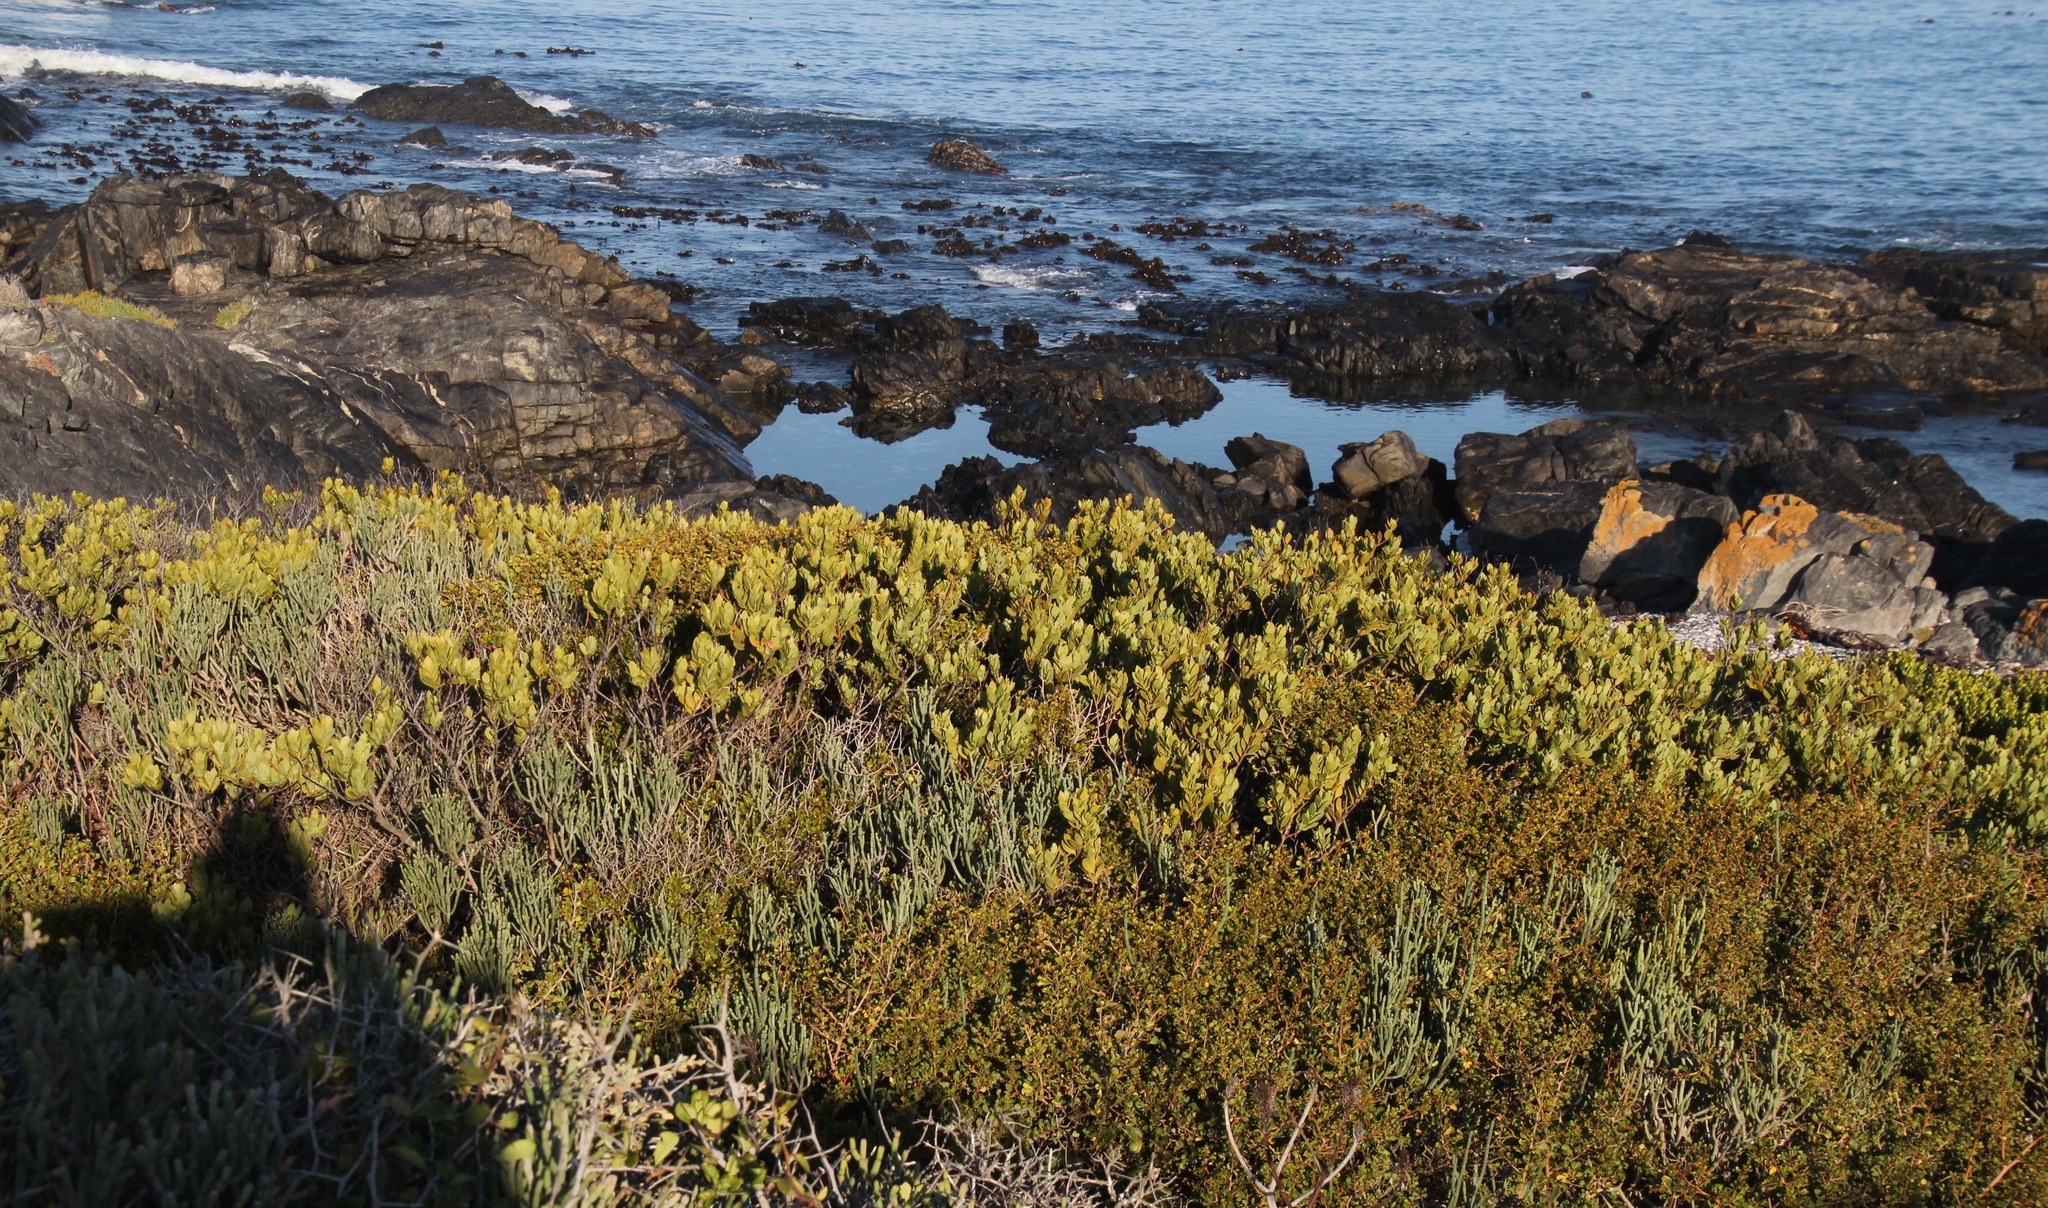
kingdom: Plantae
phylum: Tracheophyta
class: Magnoliopsida
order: Santalales
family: Santalaceae
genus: Osyris
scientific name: Osyris compressa
